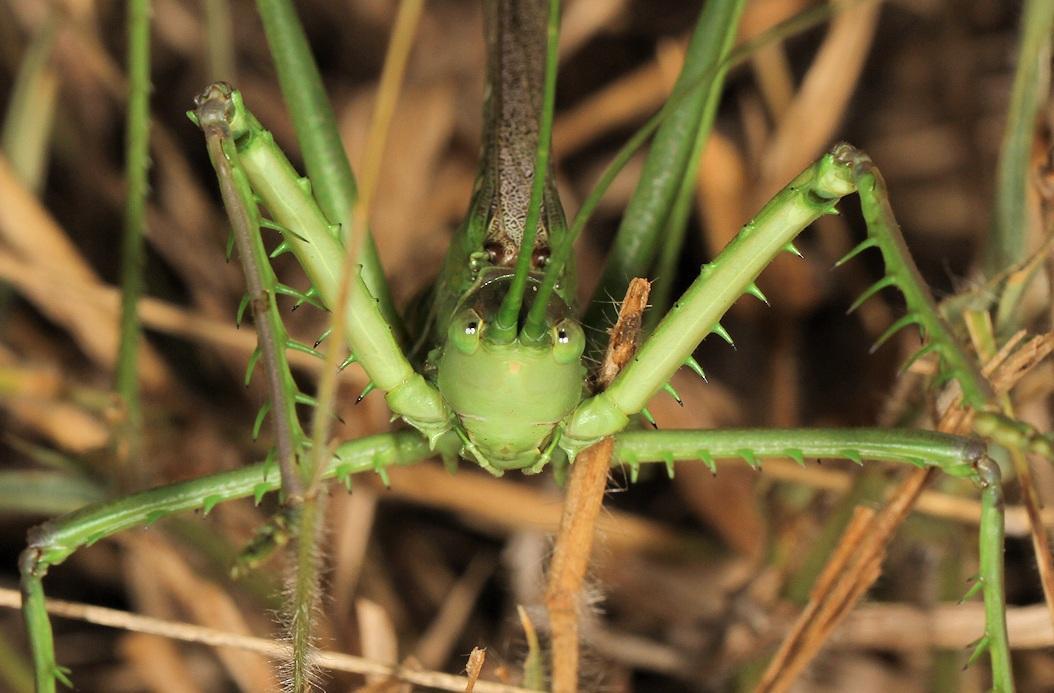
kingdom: Animalia
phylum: Arthropoda
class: Insecta
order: Orthoptera
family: Tettigoniidae
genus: Clonia
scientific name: Clonia wahlbergi
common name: Wahlberg's clonia
